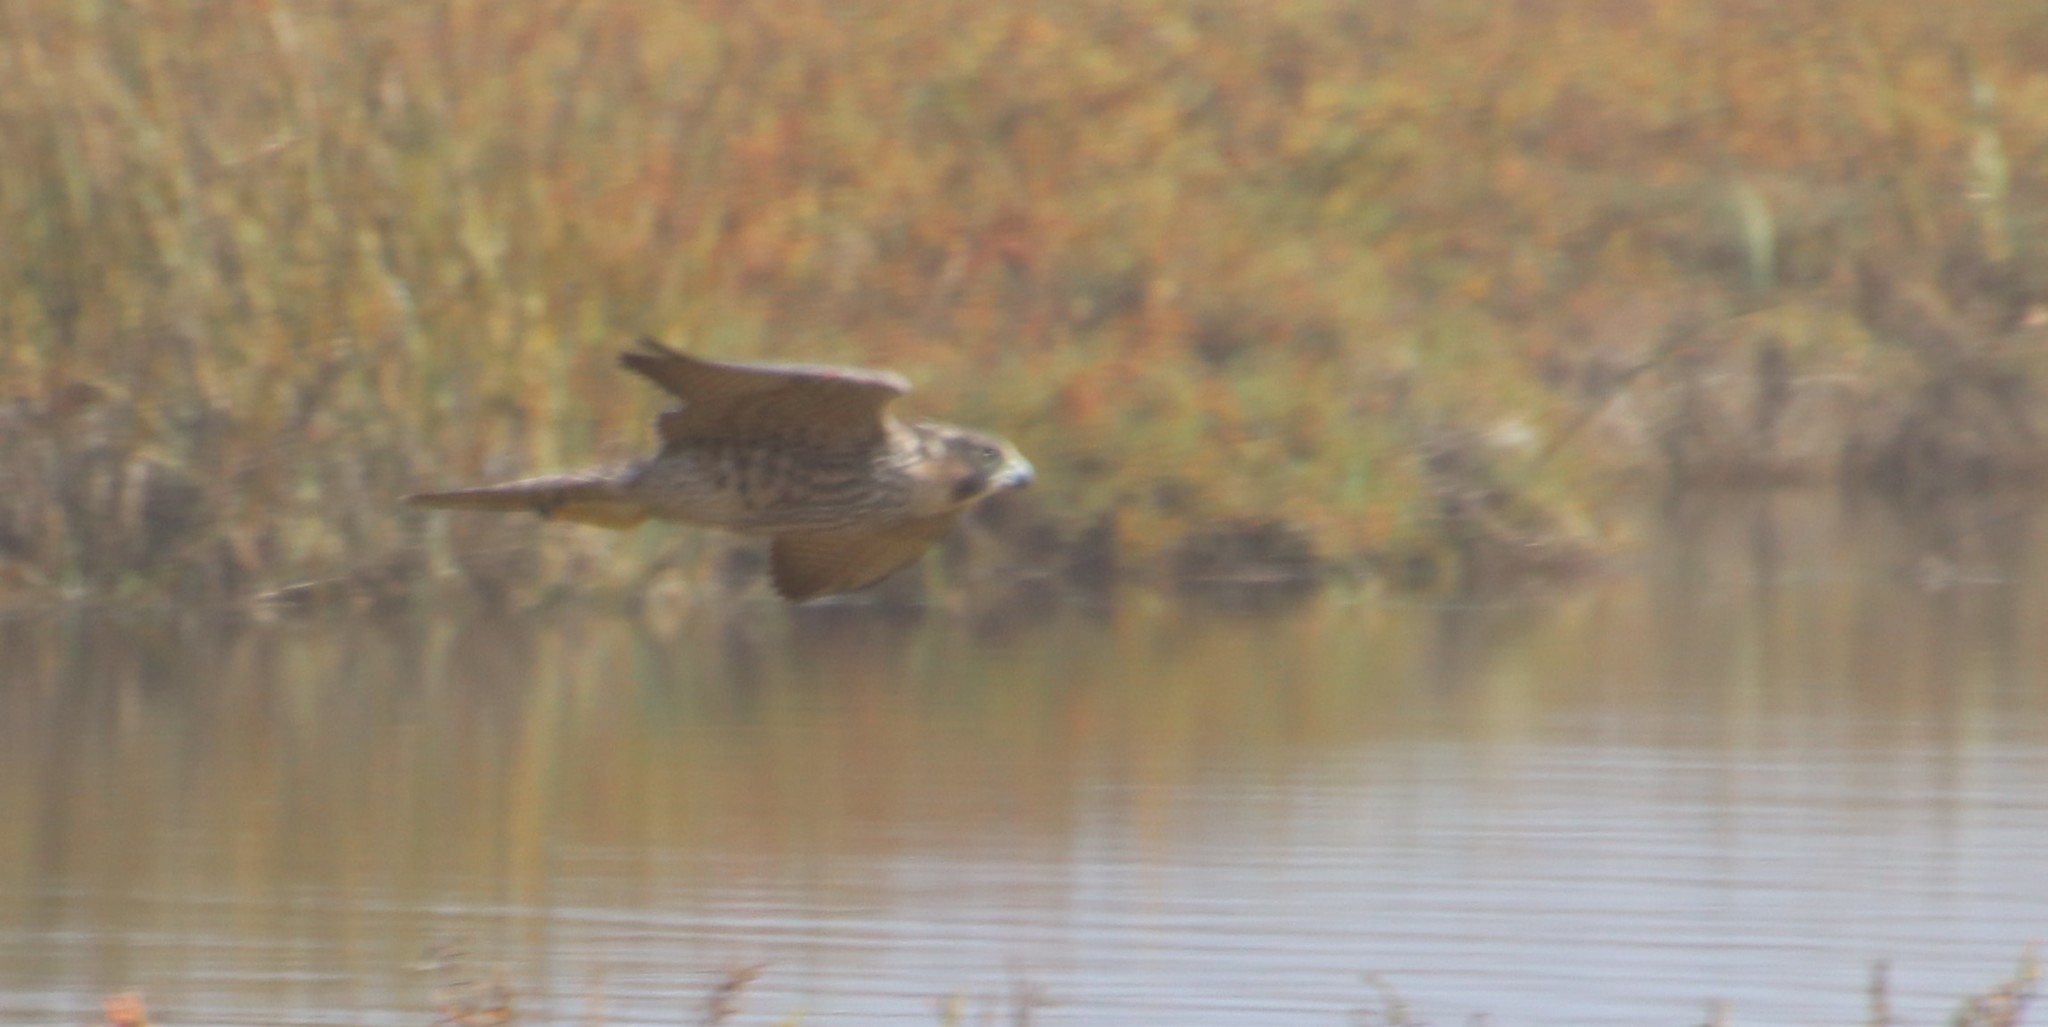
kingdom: Animalia
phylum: Chordata
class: Aves
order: Falconiformes
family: Falconidae
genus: Falco
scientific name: Falco peregrinus
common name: Peregrine falcon
